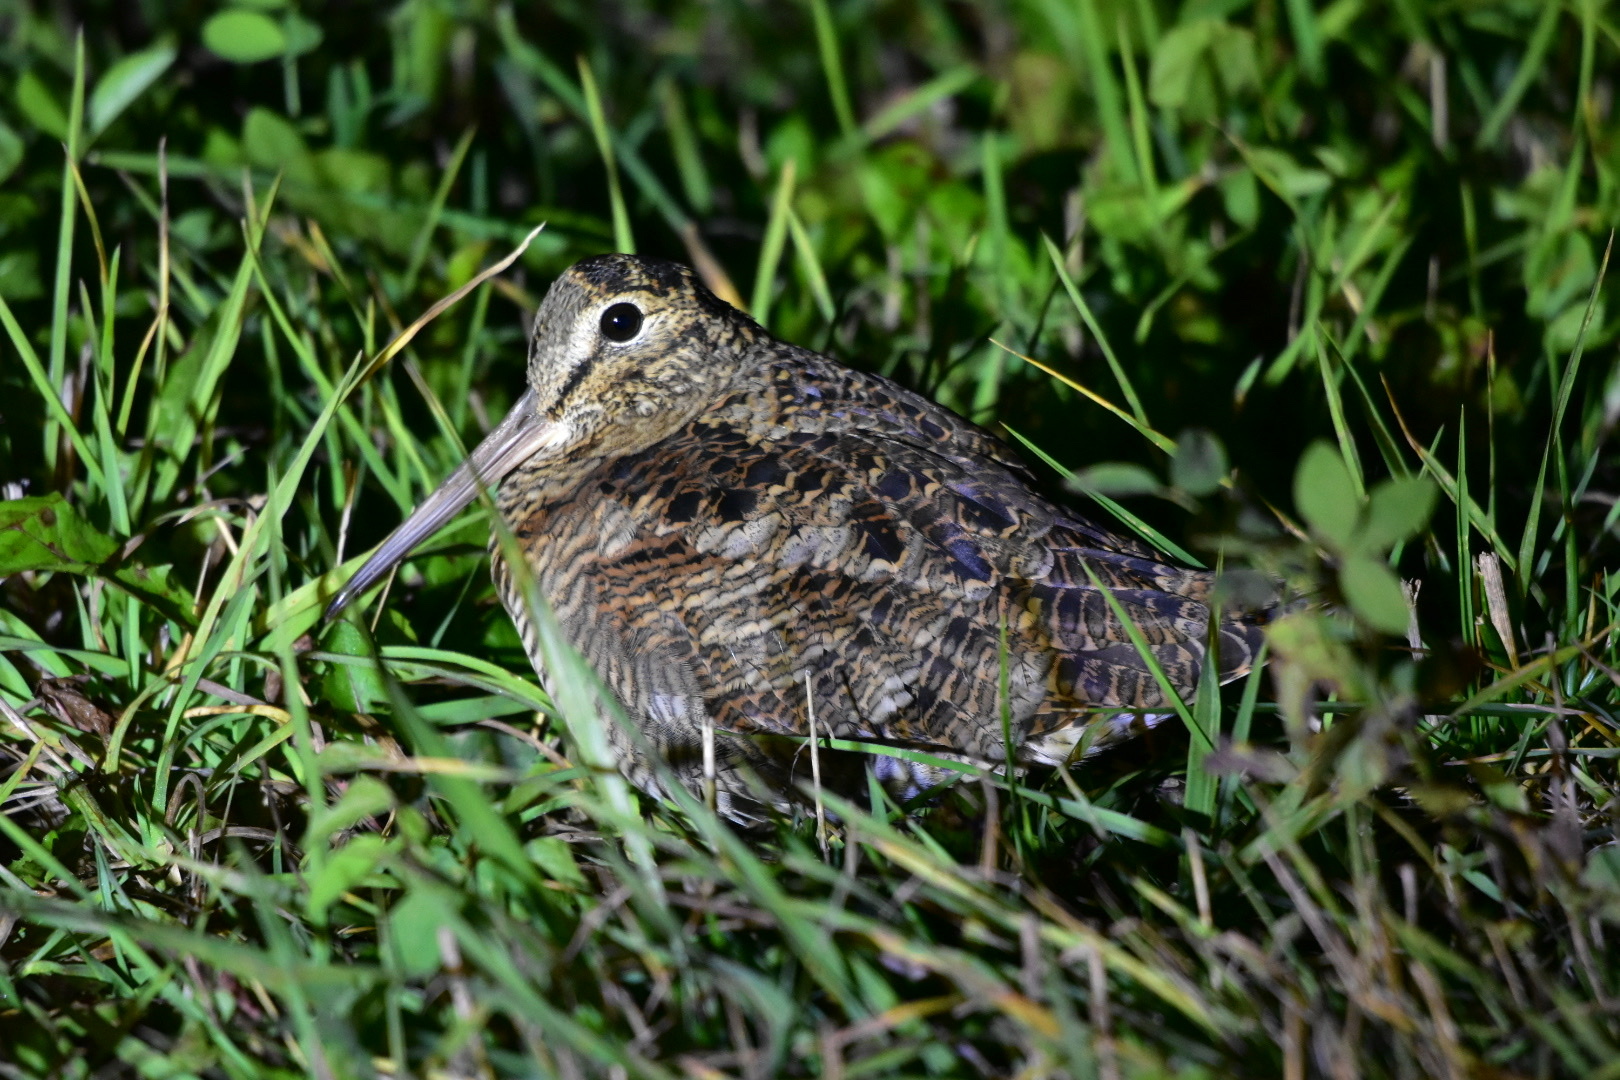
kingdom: Animalia
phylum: Chordata
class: Aves
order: Charadriiformes
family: Scolopacidae
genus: Scolopax
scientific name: Scolopax rusticola
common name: Eurasian woodcock
